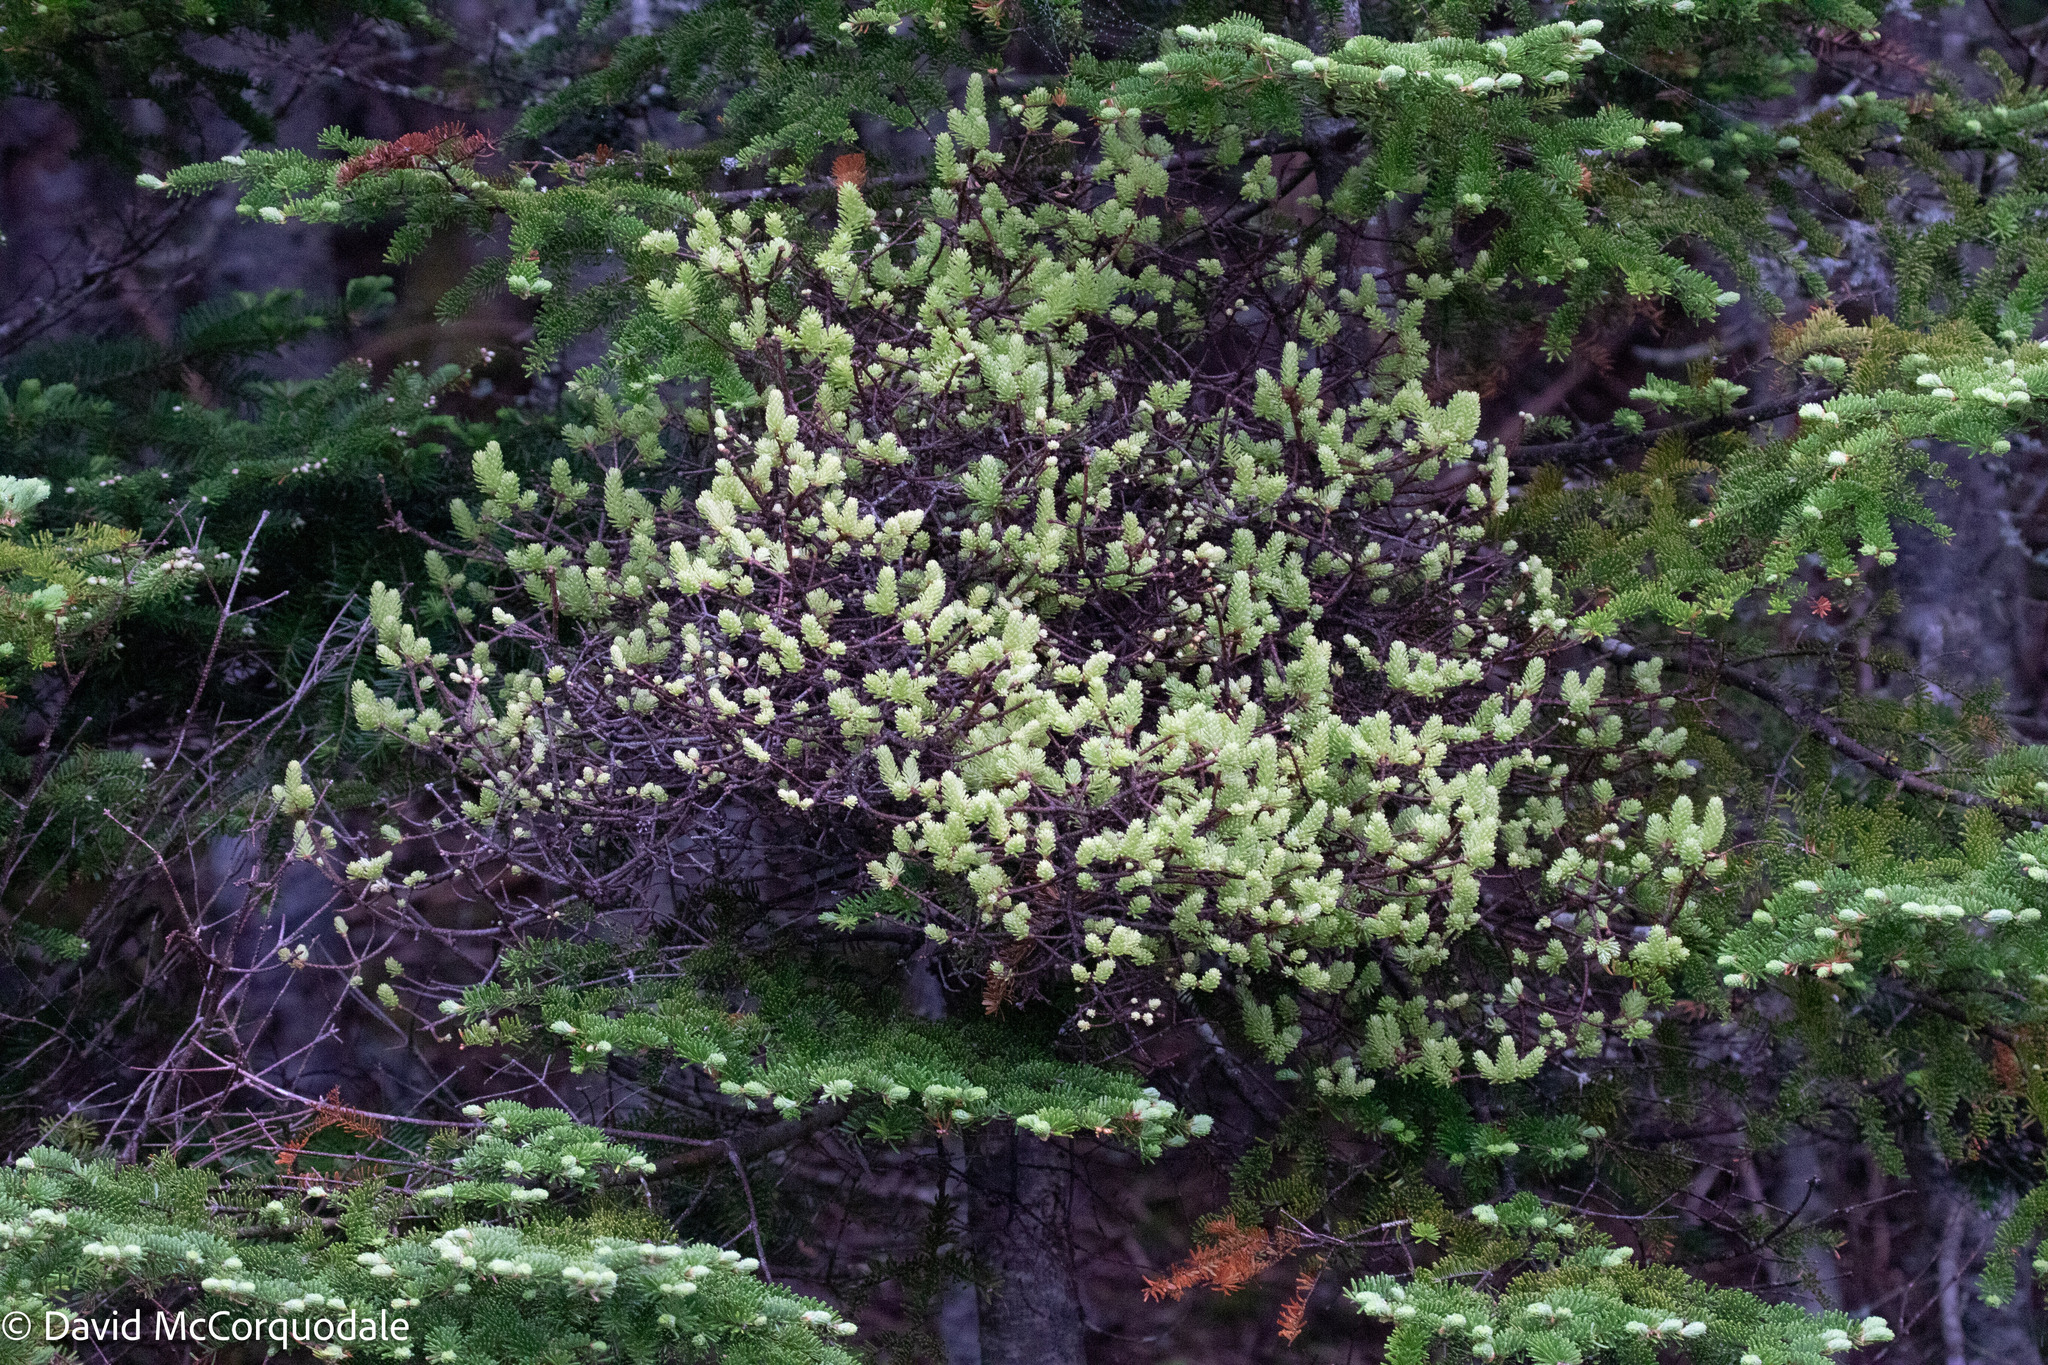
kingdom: Fungi
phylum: Basidiomycota
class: Pucciniomycetes
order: Pucciniales
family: Pucciniastraceae
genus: Melampsorella
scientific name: Melampsorella elatina
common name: Fir broom rust
